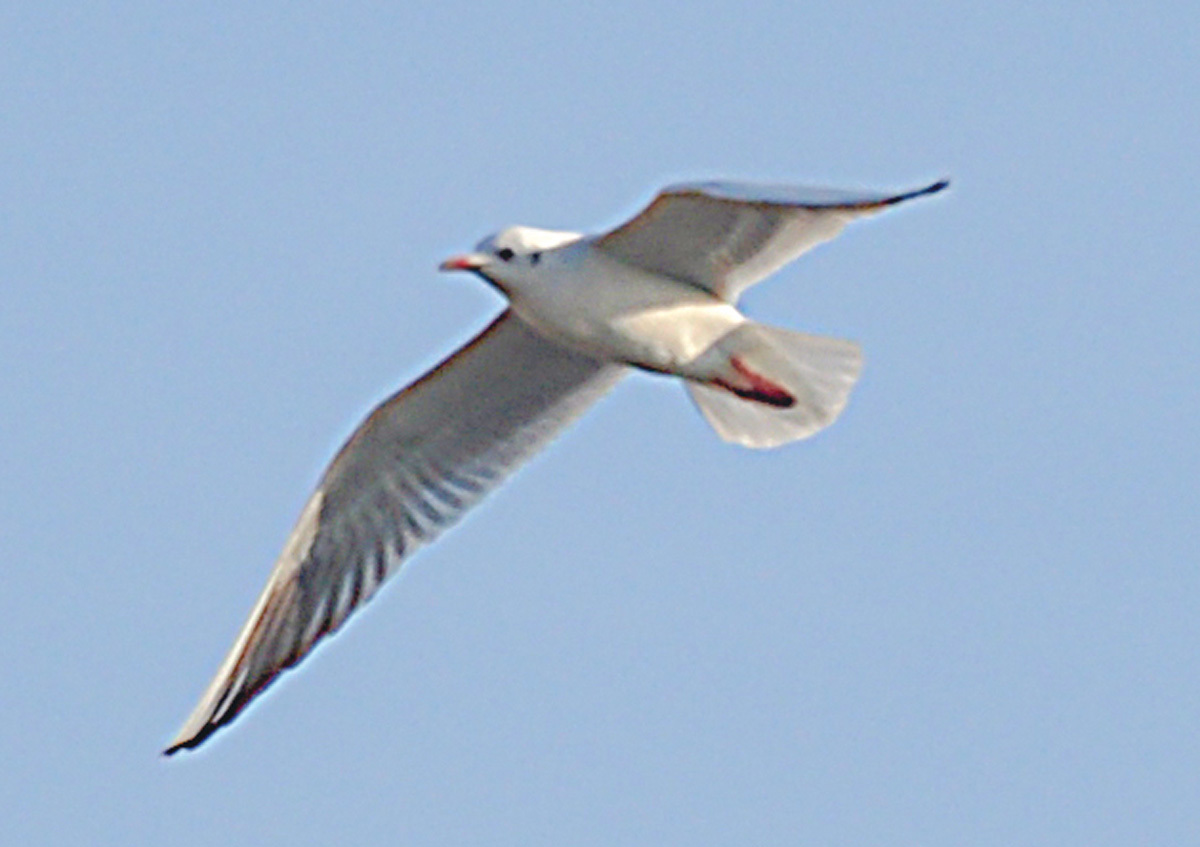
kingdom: Animalia
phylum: Chordata
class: Aves
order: Charadriiformes
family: Laridae
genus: Chroicocephalus
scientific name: Chroicocephalus ridibundus
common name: Black-headed gull
